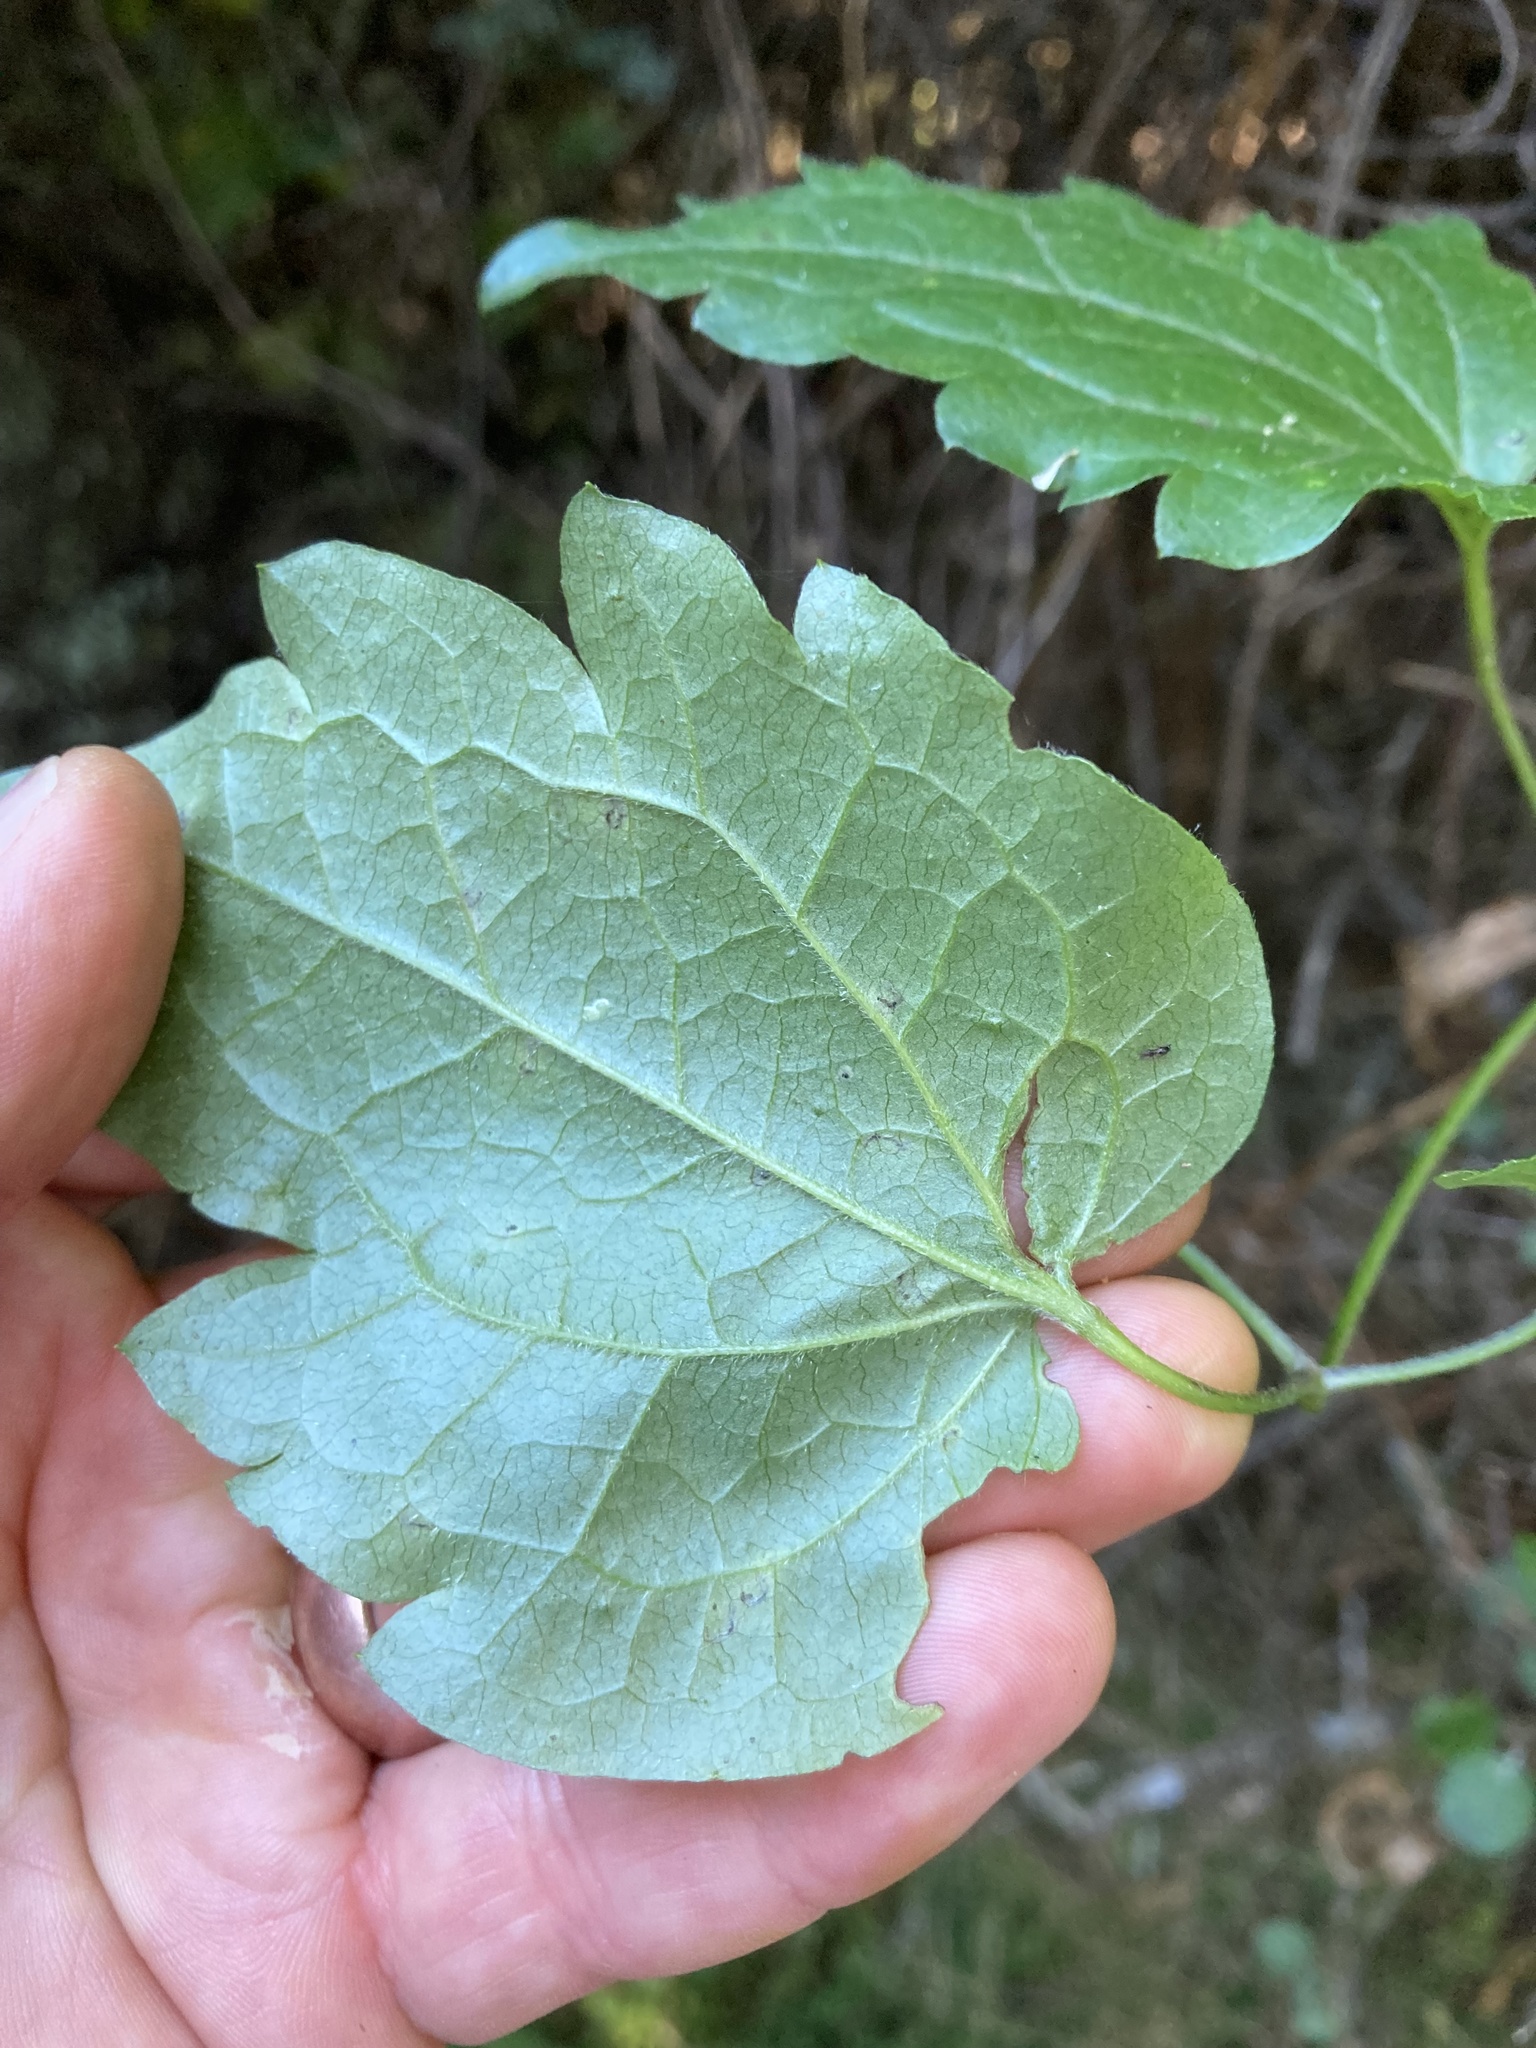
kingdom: Plantae
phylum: Tracheophyta
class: Magnoliopsida
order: Ranunculales
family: Ranunculaceae
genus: Clematis
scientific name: Clematis vitalba
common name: Evergreen clematis
